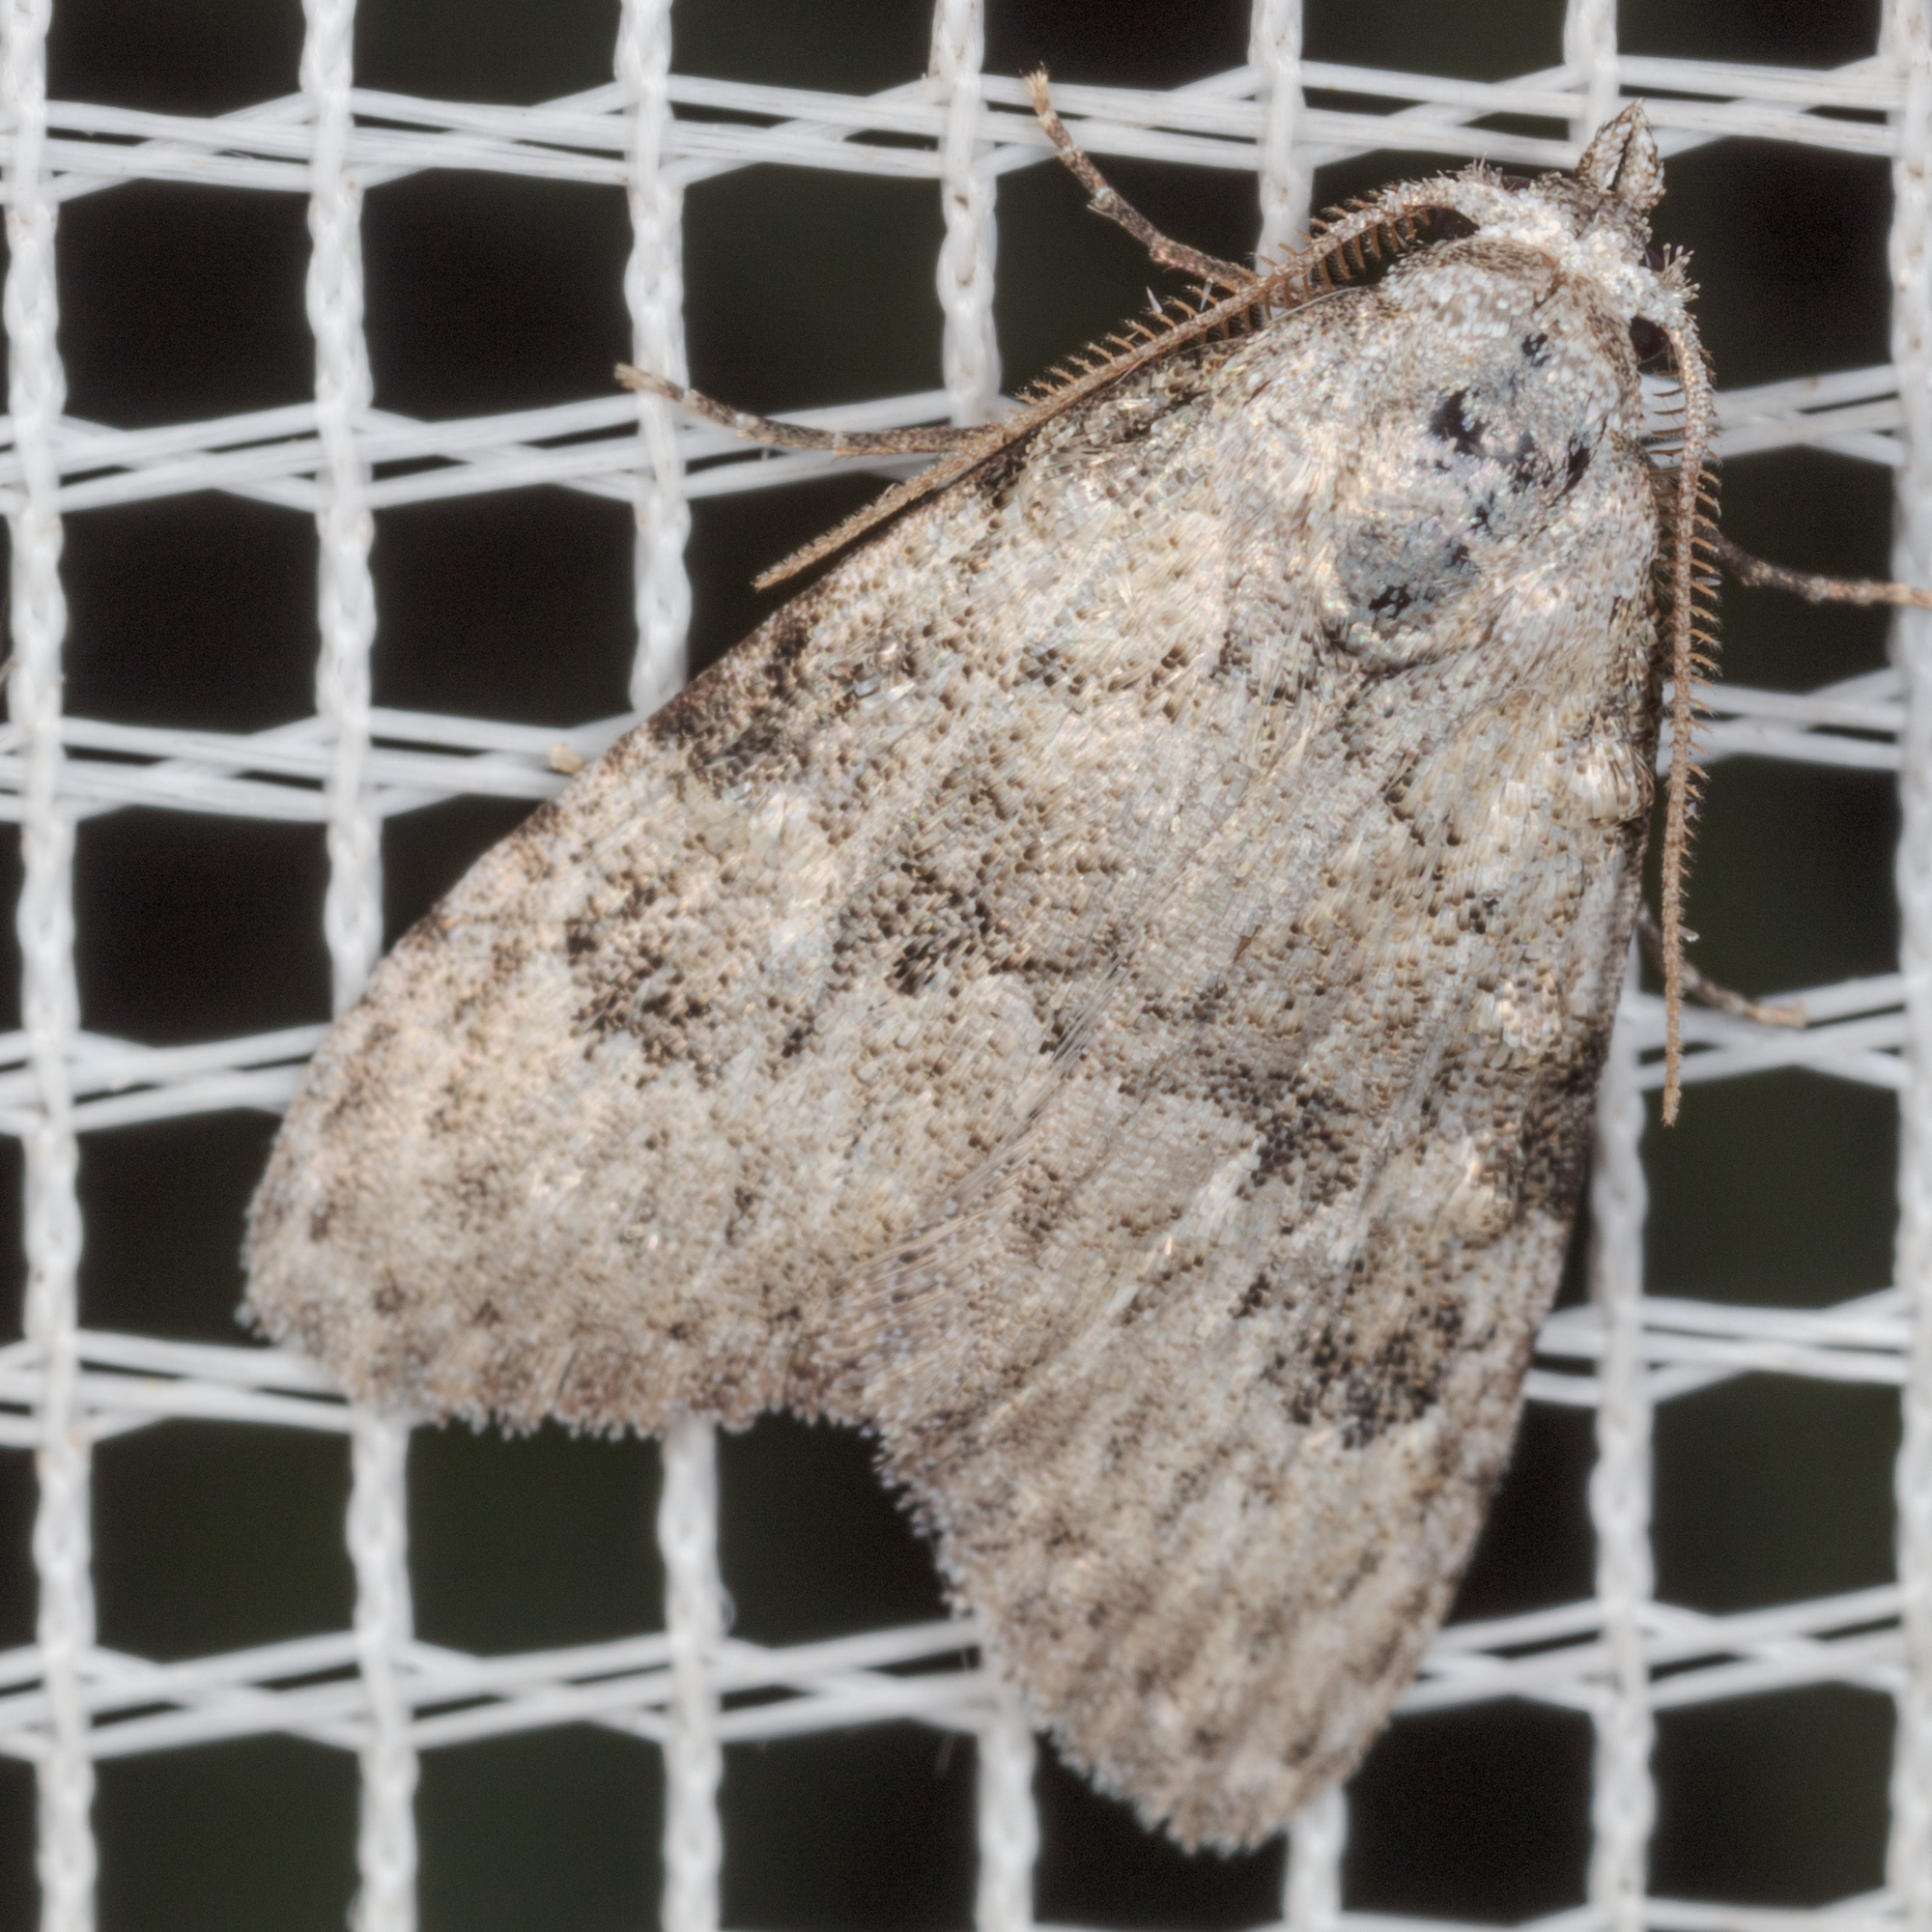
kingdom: Animalia
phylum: Arthropoda
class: Insecta
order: Lepidoptera
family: Nolidae
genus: Meganola
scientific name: Meganola minuscula
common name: Confused meganola moth
